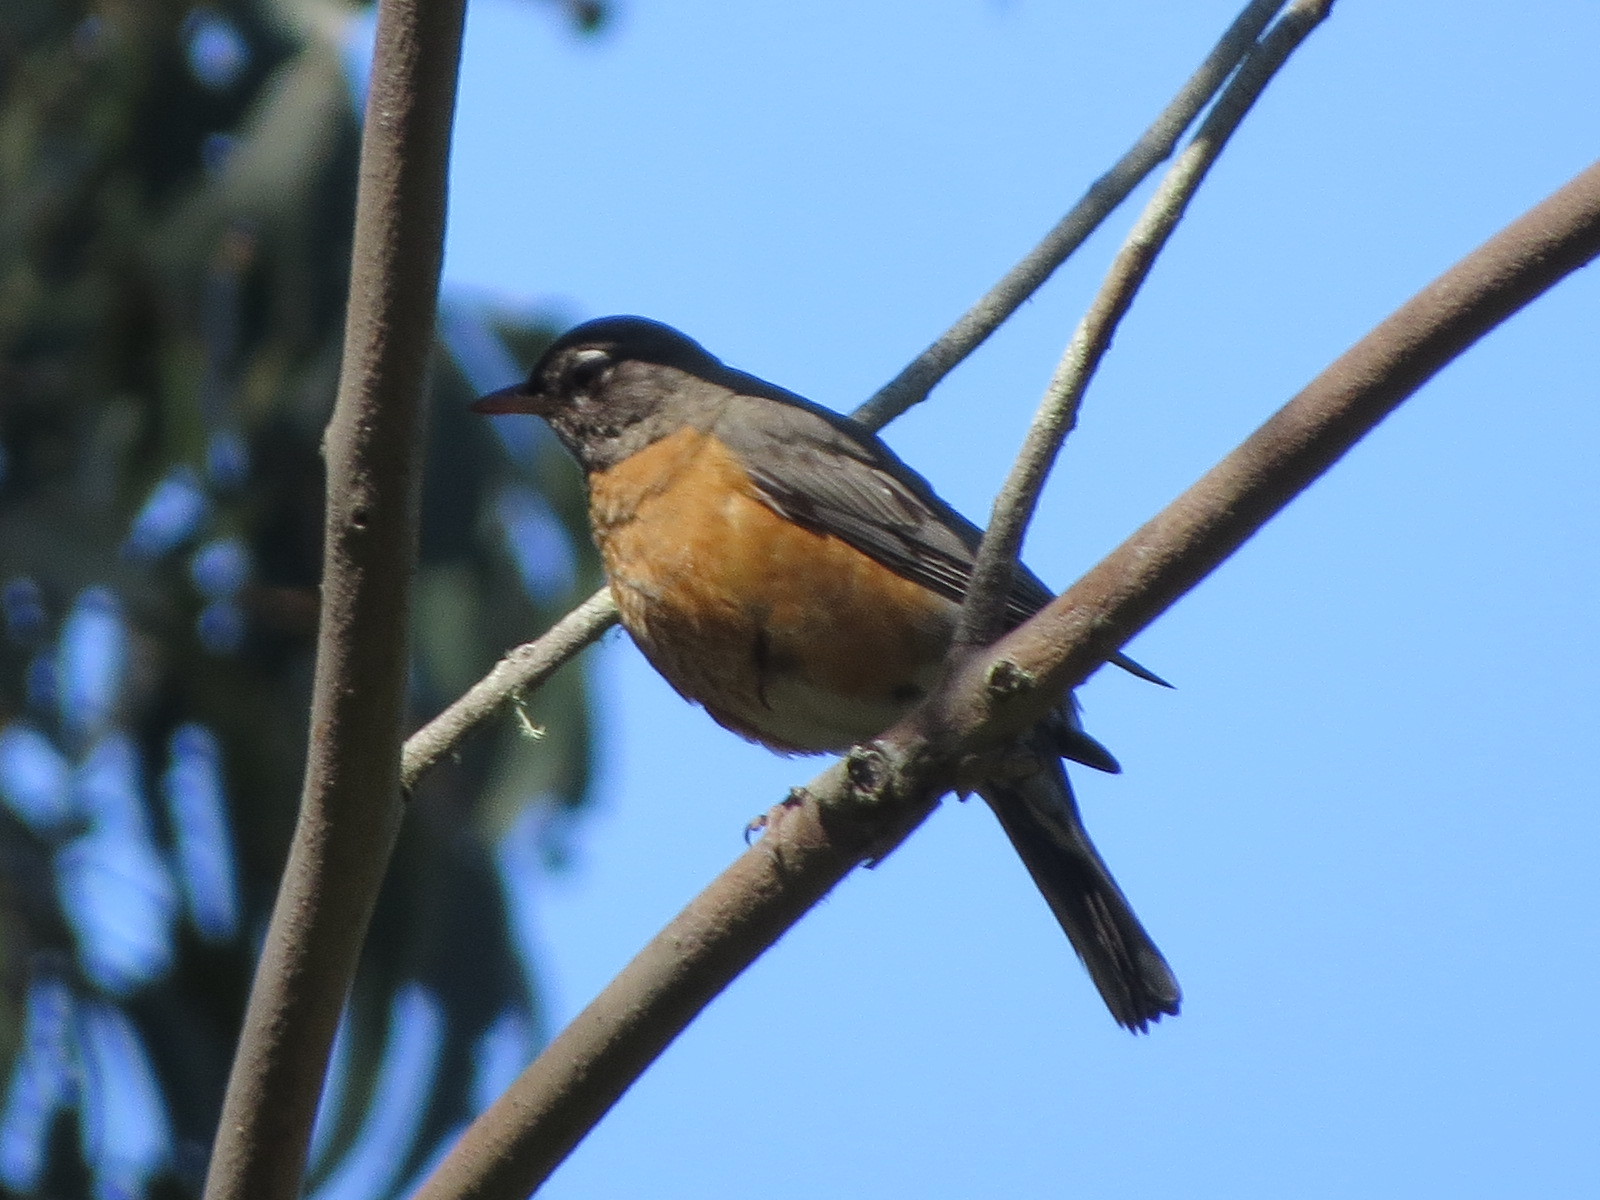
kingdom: Animalia
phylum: Chordata
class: Aves
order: Passeriformes
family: Turdidae
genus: Turdus
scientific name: Turdus migratorius
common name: American robin
